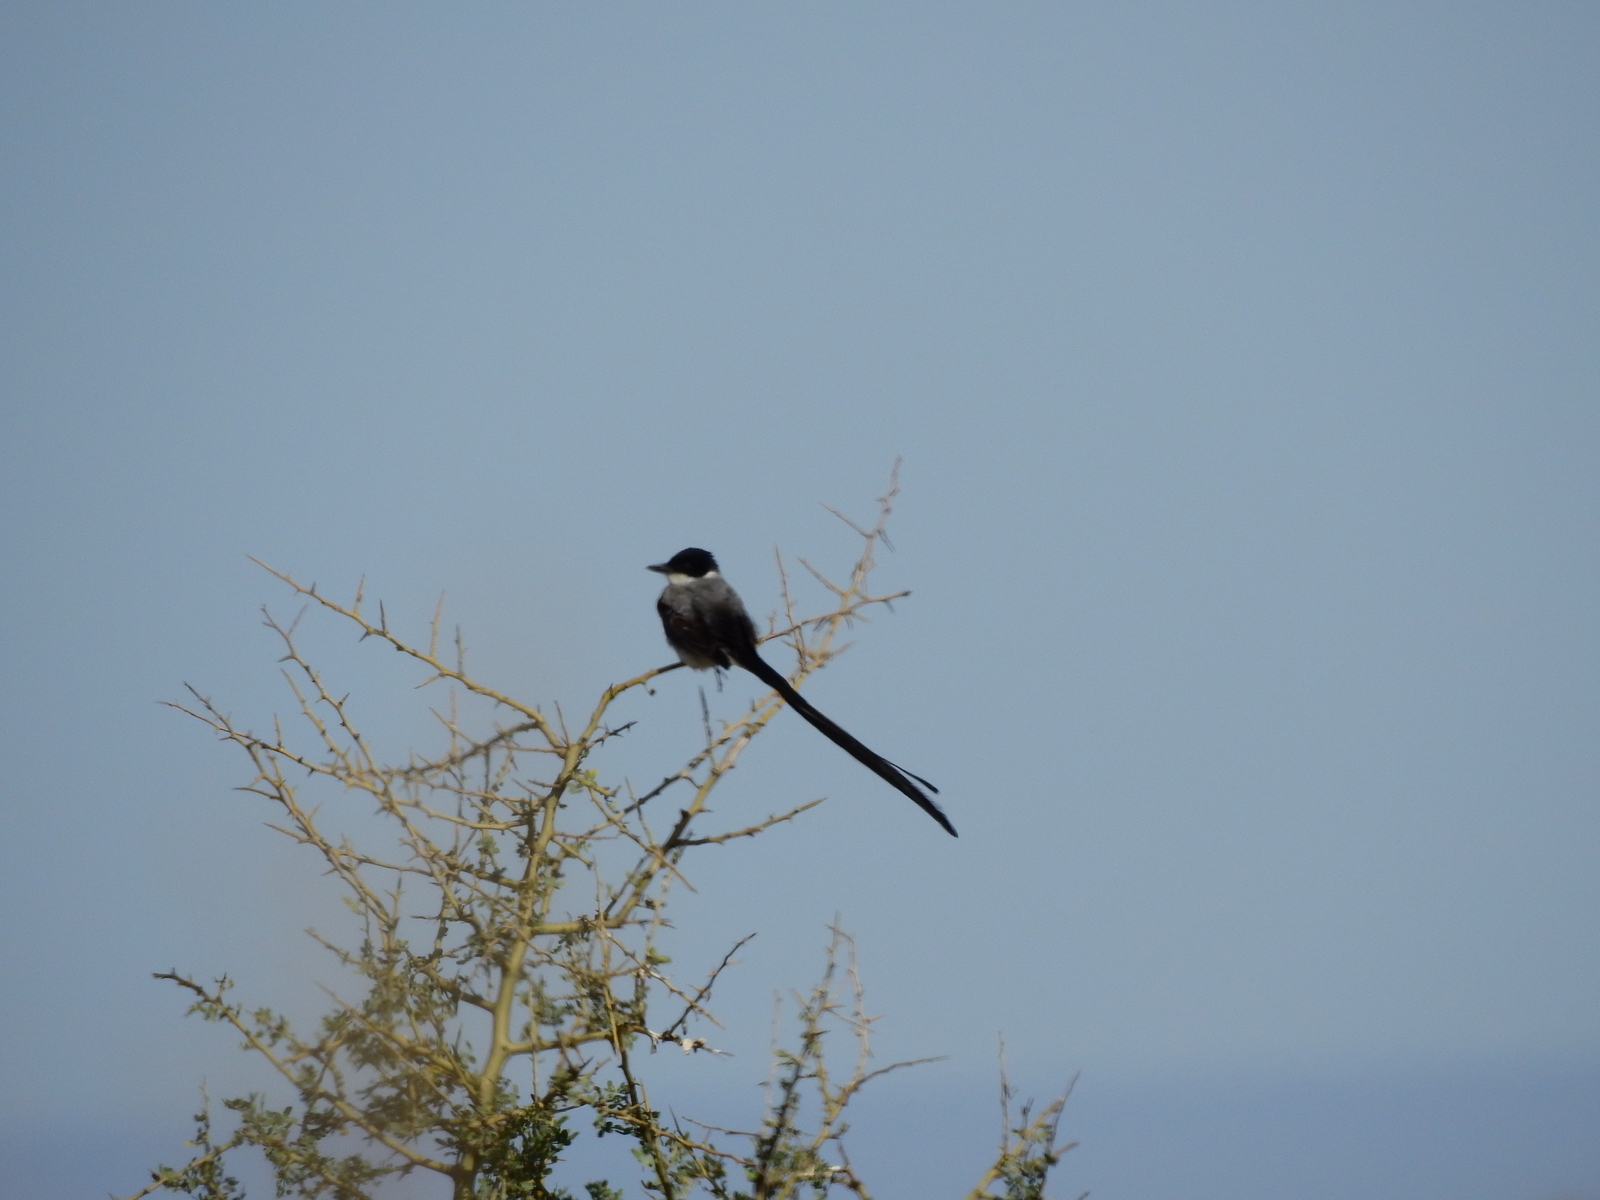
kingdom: Animalia
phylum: Chordata
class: Aves
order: Passeriformes
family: Tyrannidae
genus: Tyrannus
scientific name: Tyrannus savana
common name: Fork-tailed flycatcher
